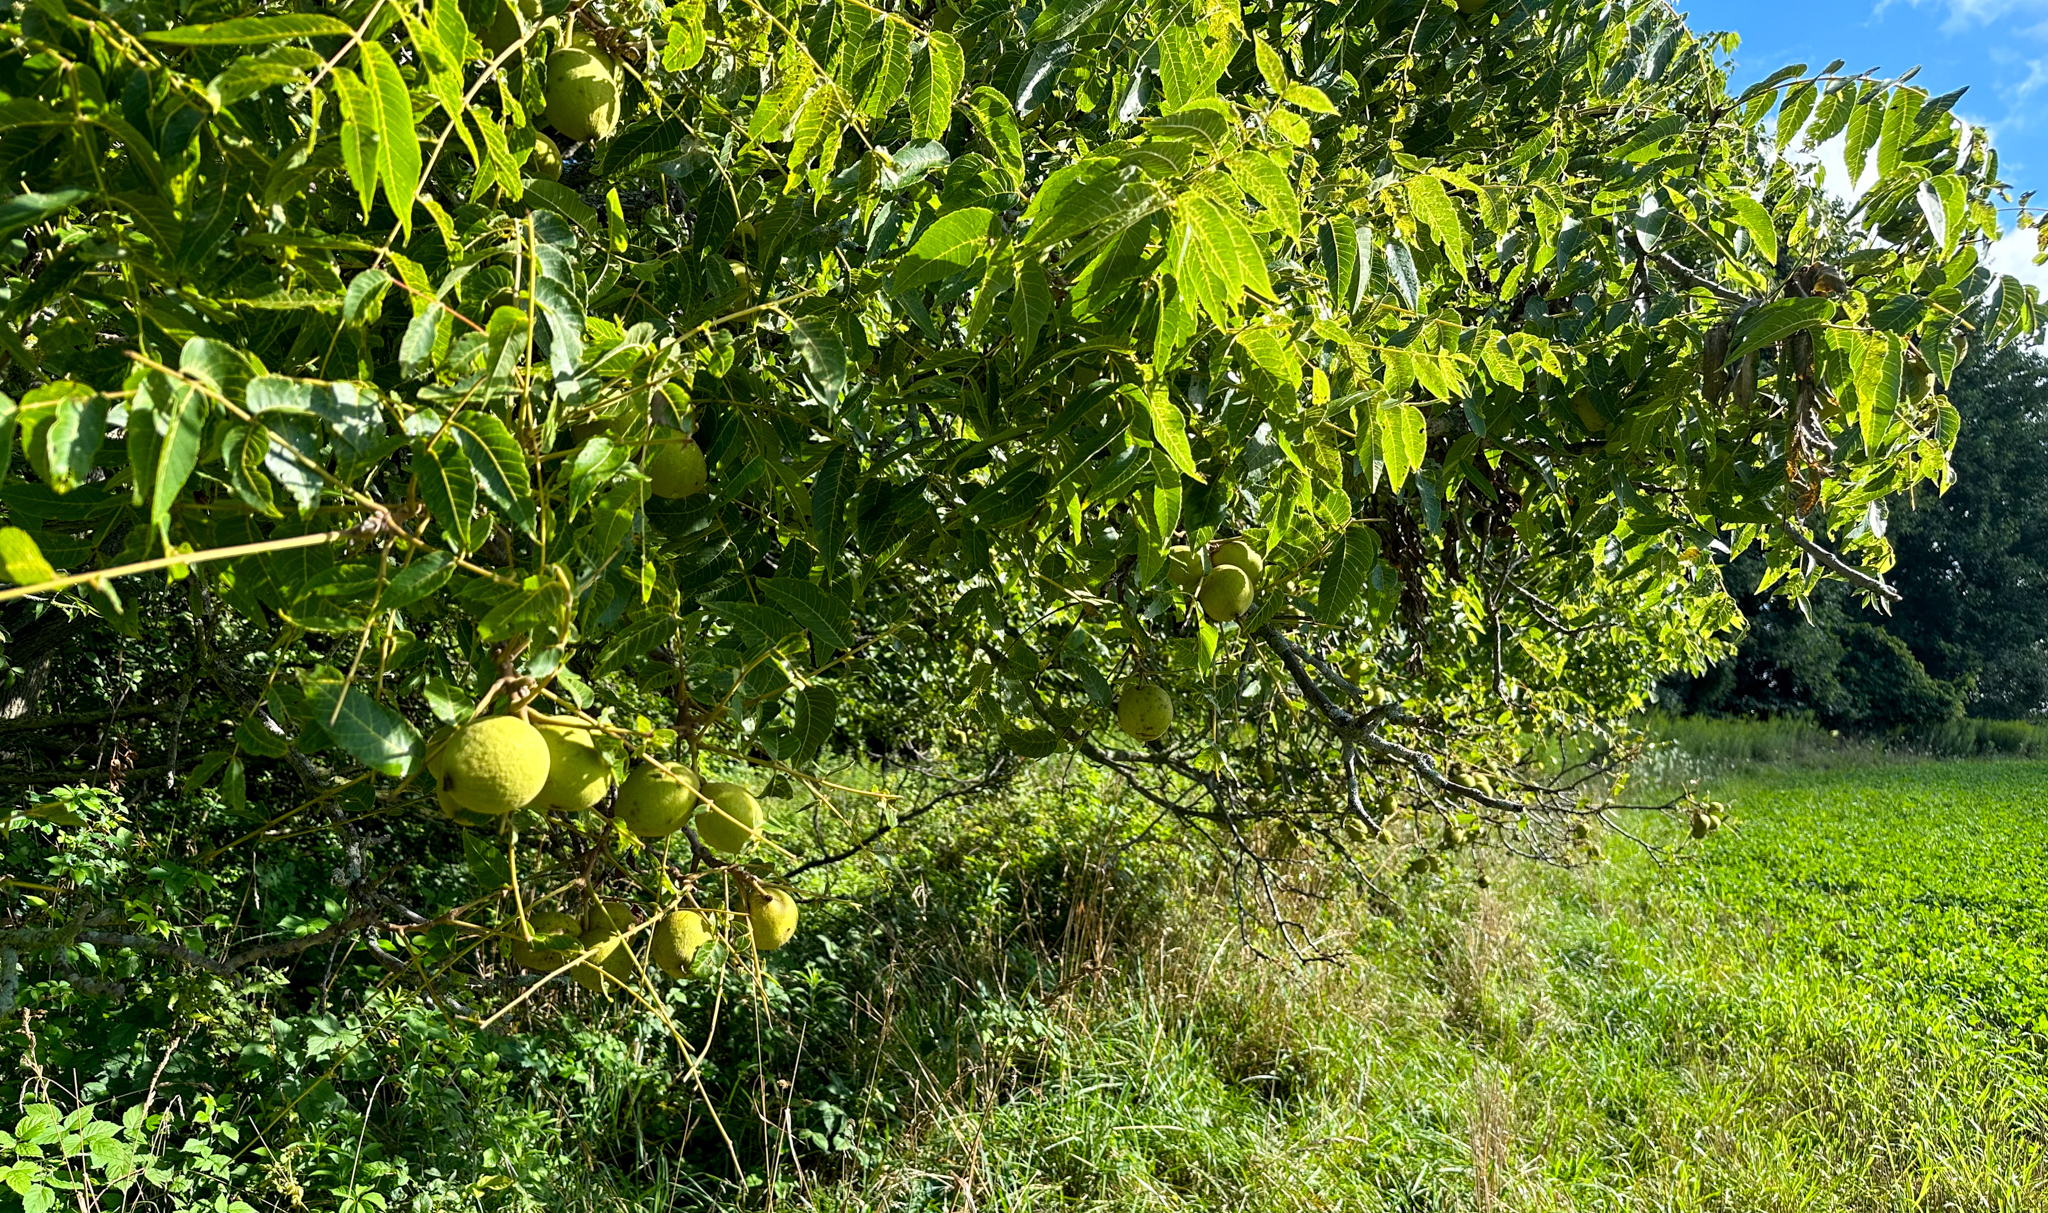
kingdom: Plantae
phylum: Tracheophyta
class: Magnoliopsida
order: Fagales
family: Juglandaceae
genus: Juglans
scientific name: Juglans nigra
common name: Black walnut
